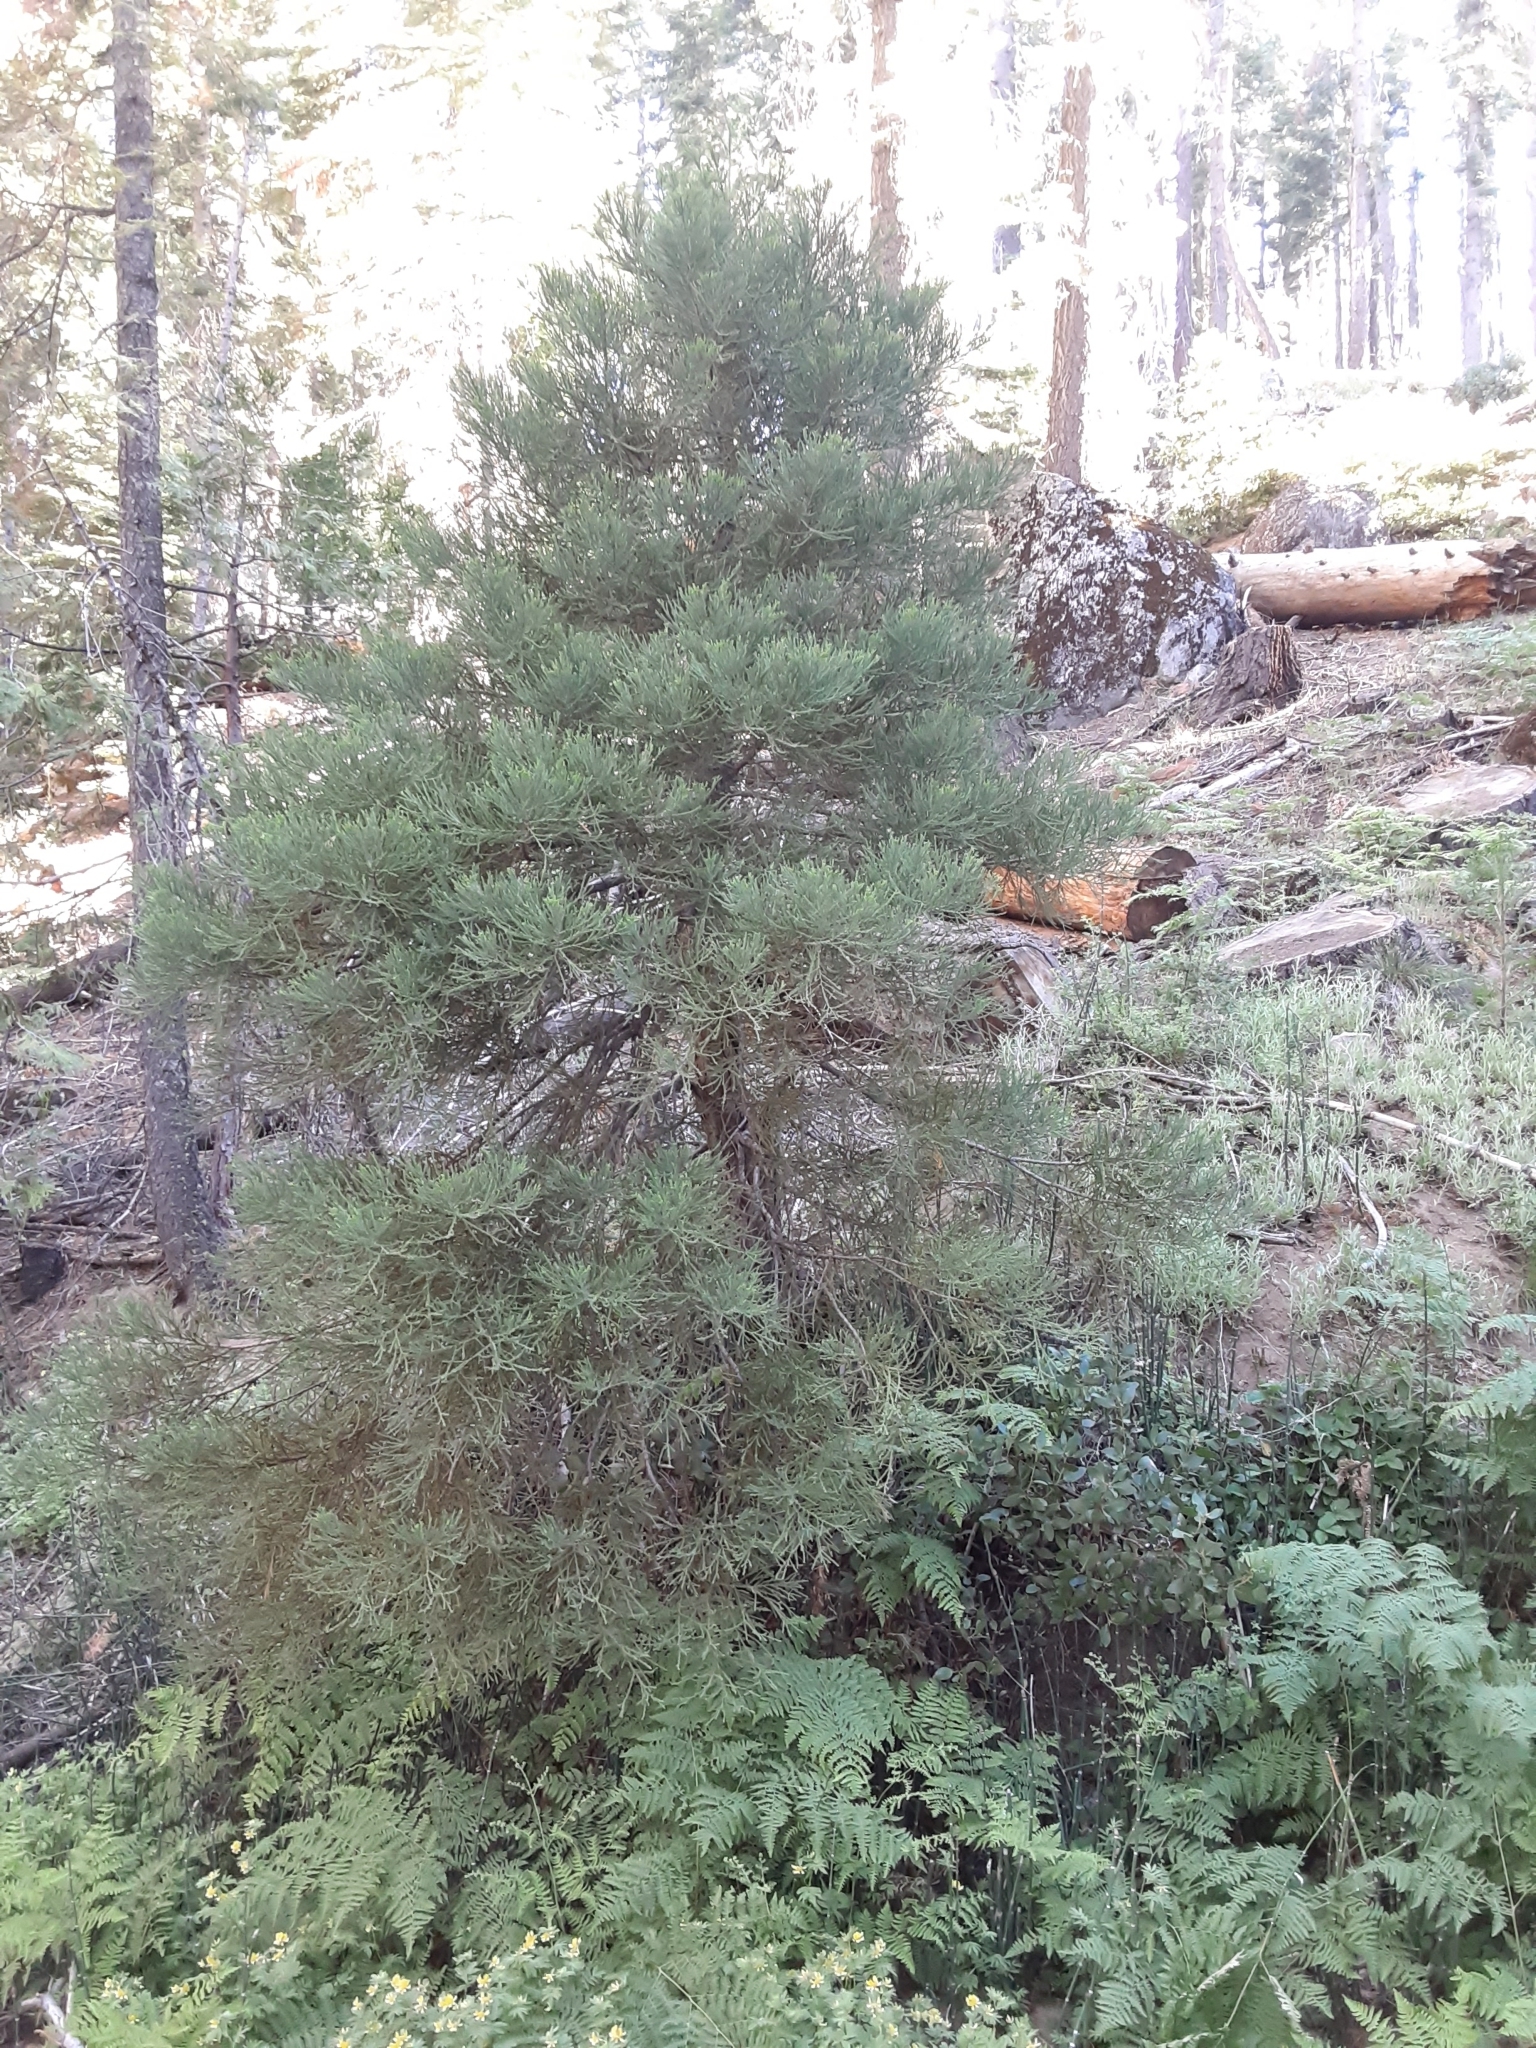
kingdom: Plantae
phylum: Tracheophyta
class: Pinopsida
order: Pinales
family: Cupressaceae
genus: Sequoiadendron
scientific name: Sequoiadendron giganteum
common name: Wellingtonia
